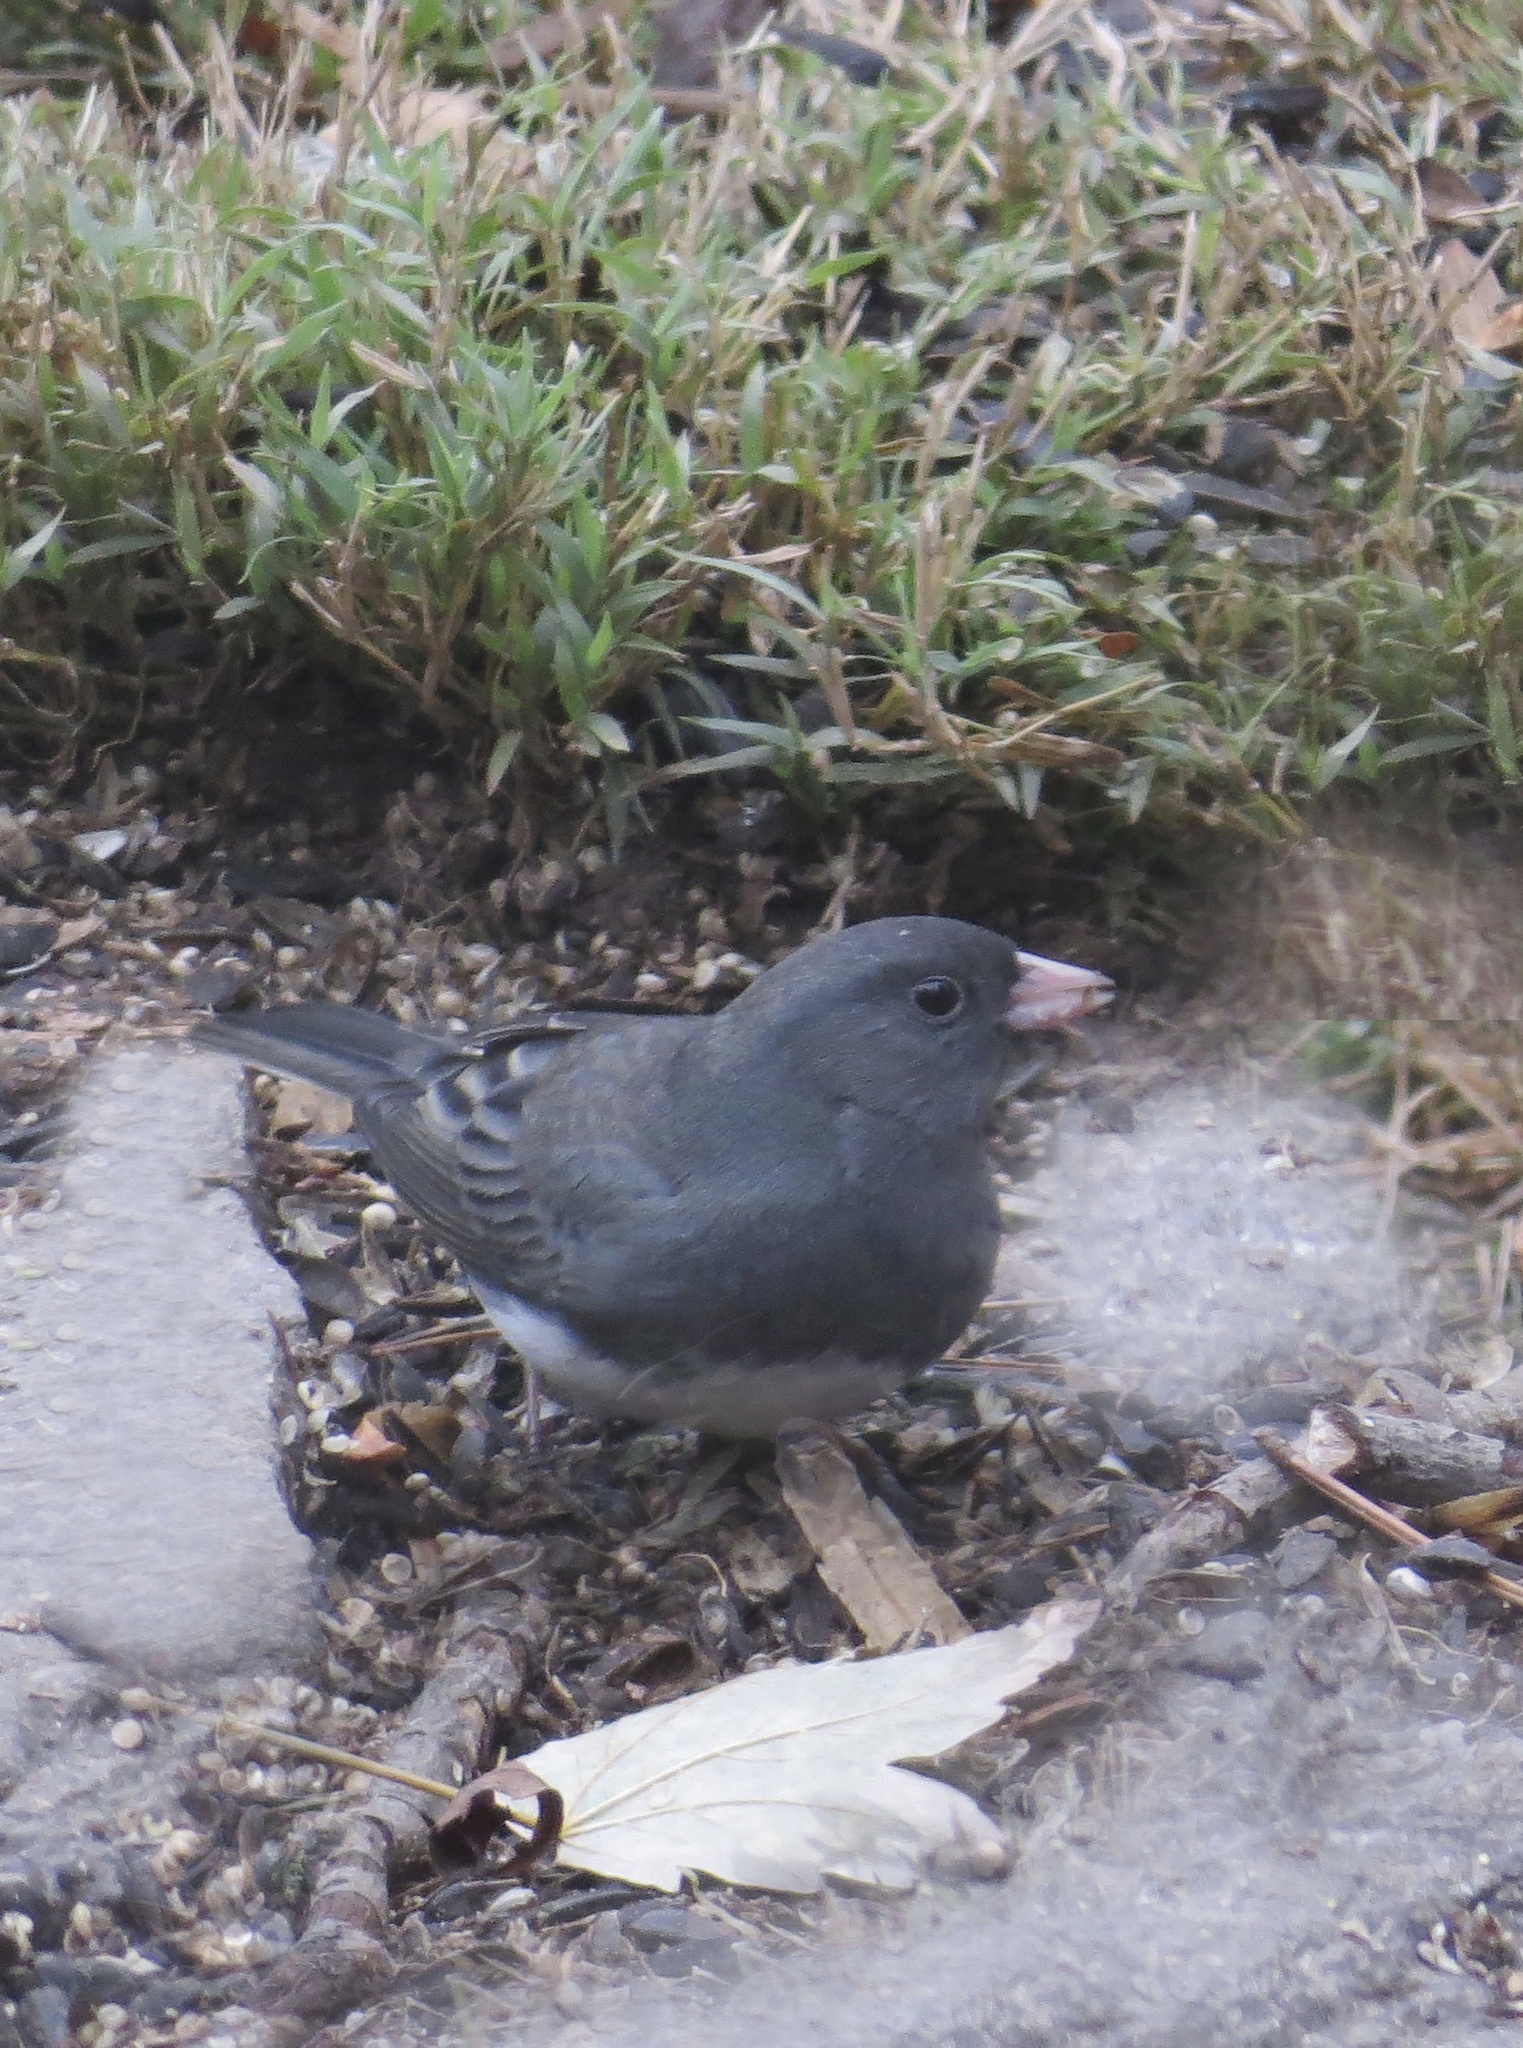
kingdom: Animalia
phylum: Chordata
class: Aves
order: Passeriformes
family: Passerellidae
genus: Junco
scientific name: Junco hyemalis
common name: Dark-eyed junco
